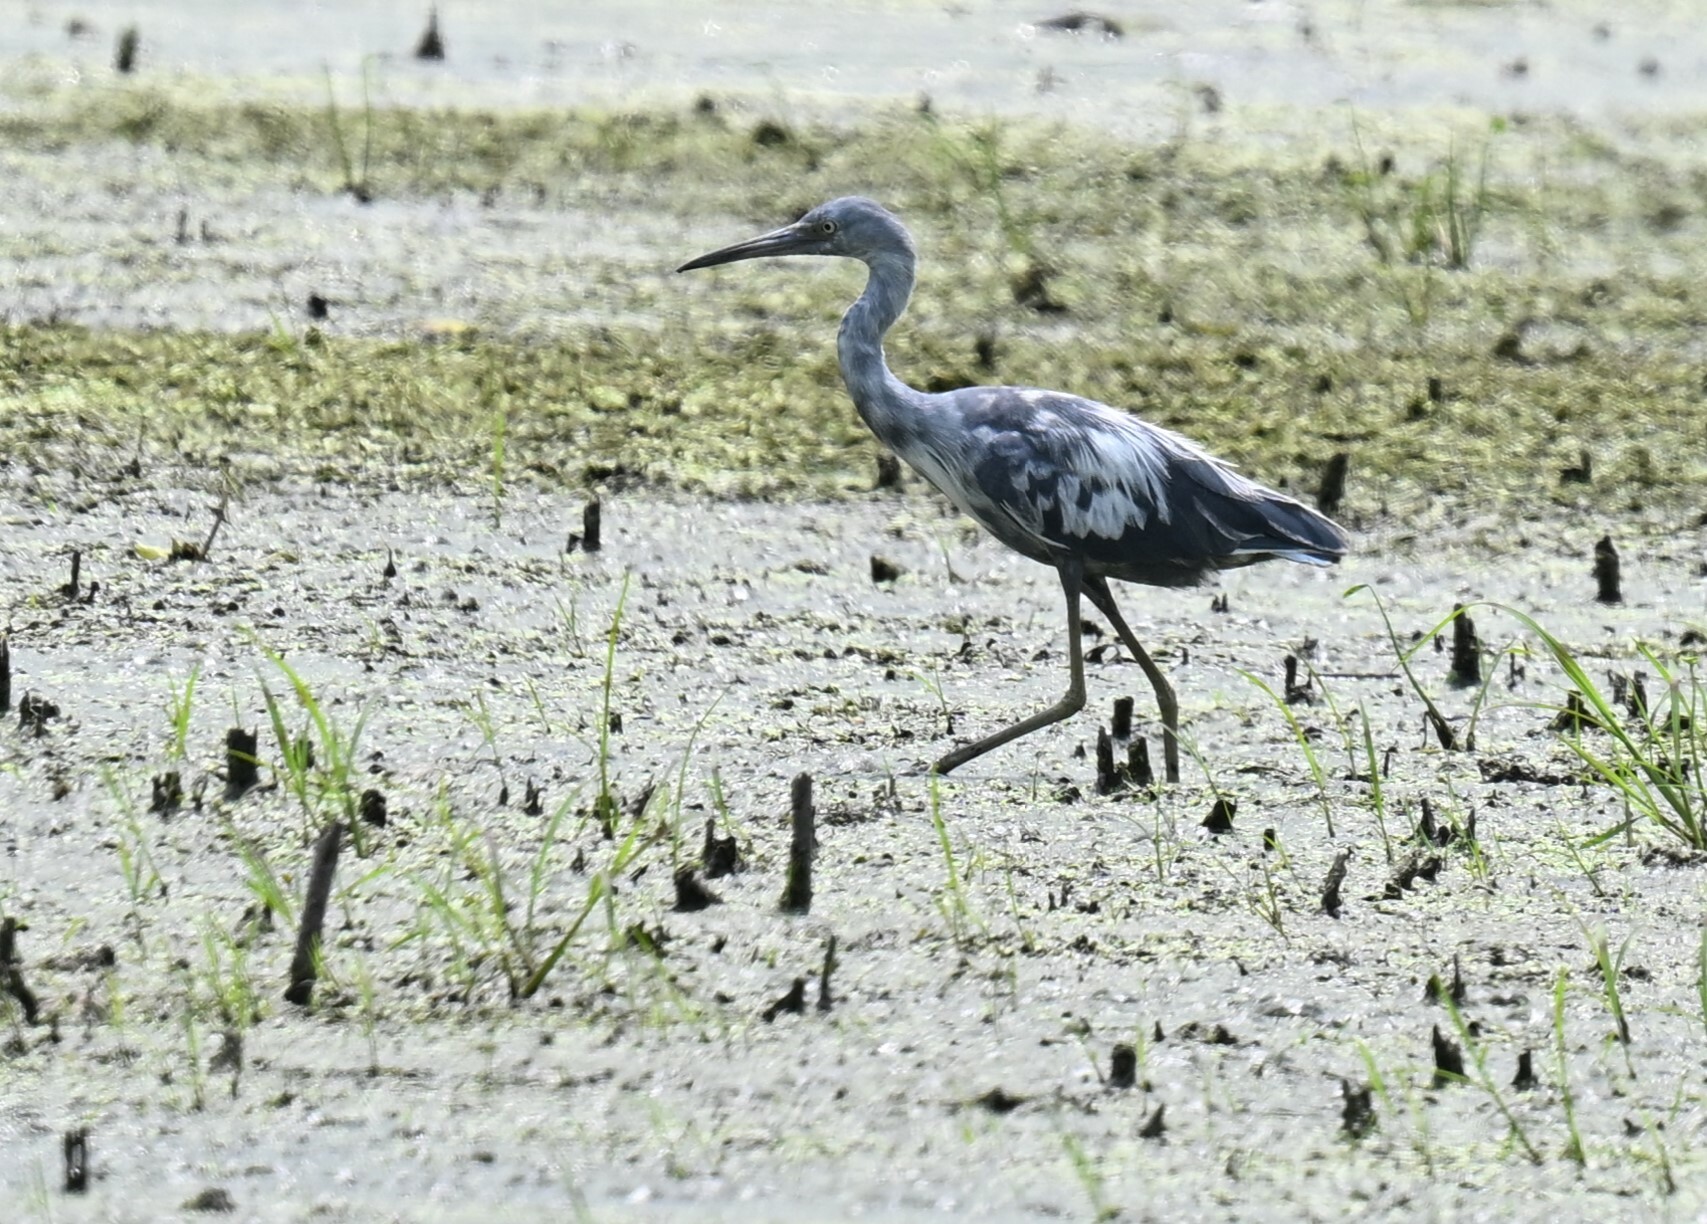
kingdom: Animalia
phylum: Chordata
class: Aves
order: Pelecaniformes
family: Ardeidae
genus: Egretta
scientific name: Egretta caerulea
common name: Little blue heron
